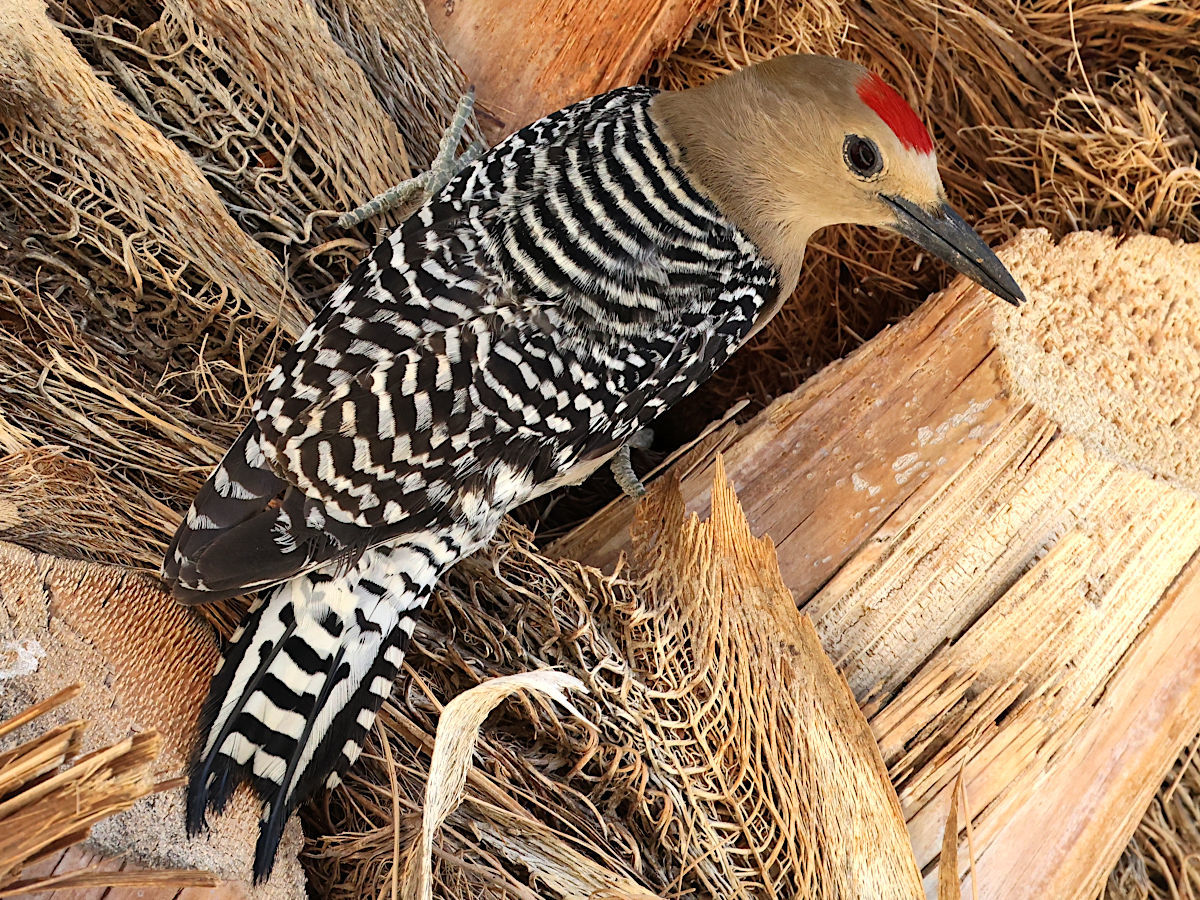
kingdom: Animalia
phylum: Chordata
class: Aves
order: Piciformes
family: Picidae
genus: Melanerpes
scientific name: Melanerpes uropygialis
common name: Gila woodpecker
